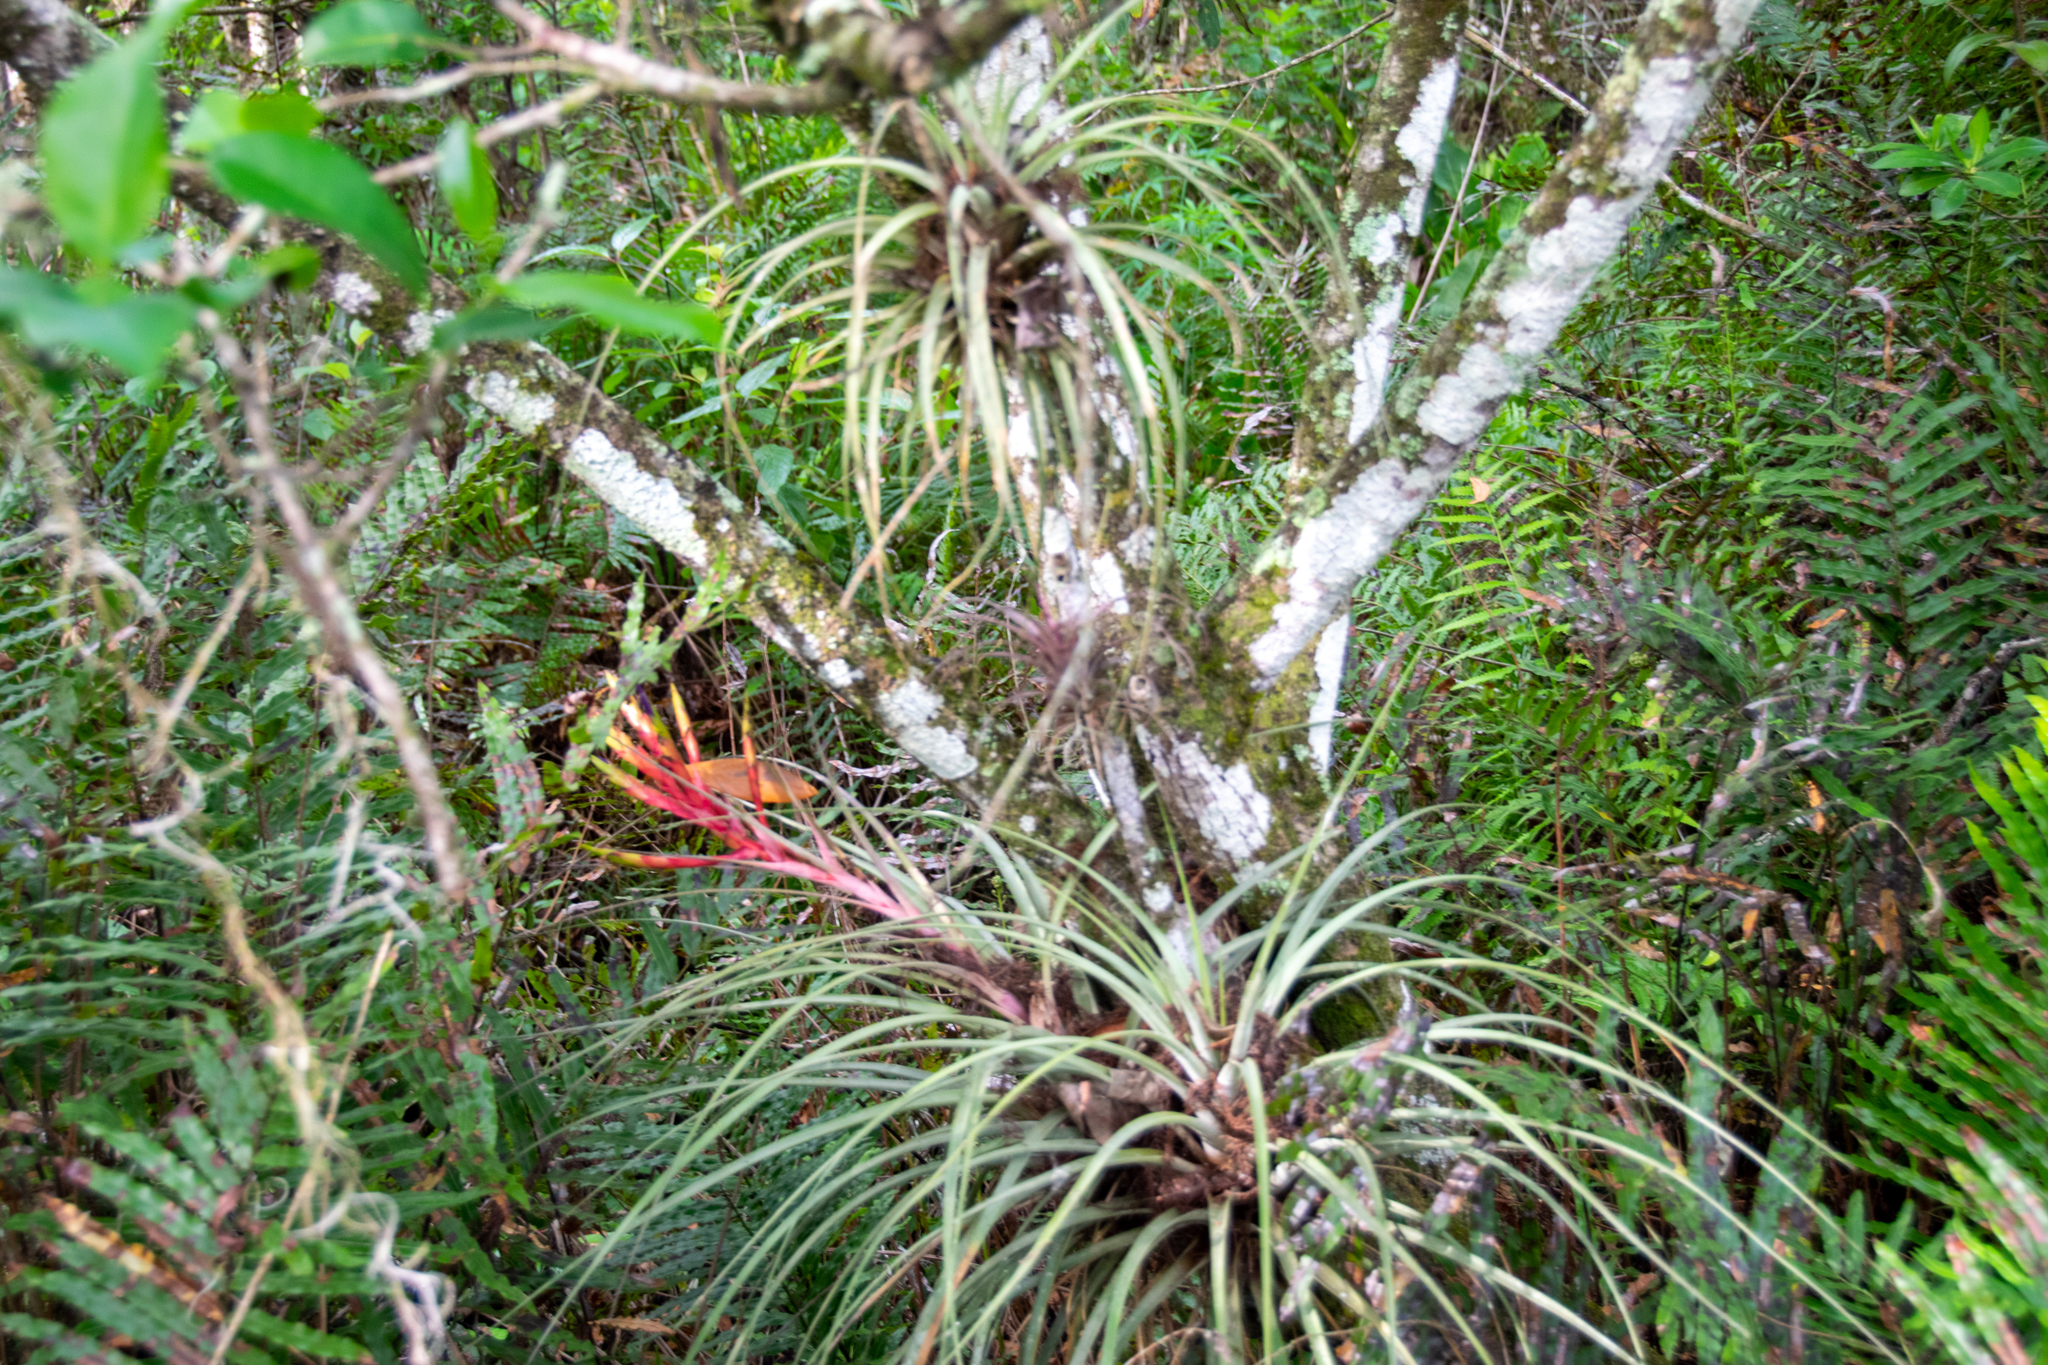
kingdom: Plantae
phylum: Tracheophyta
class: Liliopsida
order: Poales
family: Bromeliaceae
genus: Tillandsia
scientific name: Tillandsia fasciculata
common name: Giant airplant
